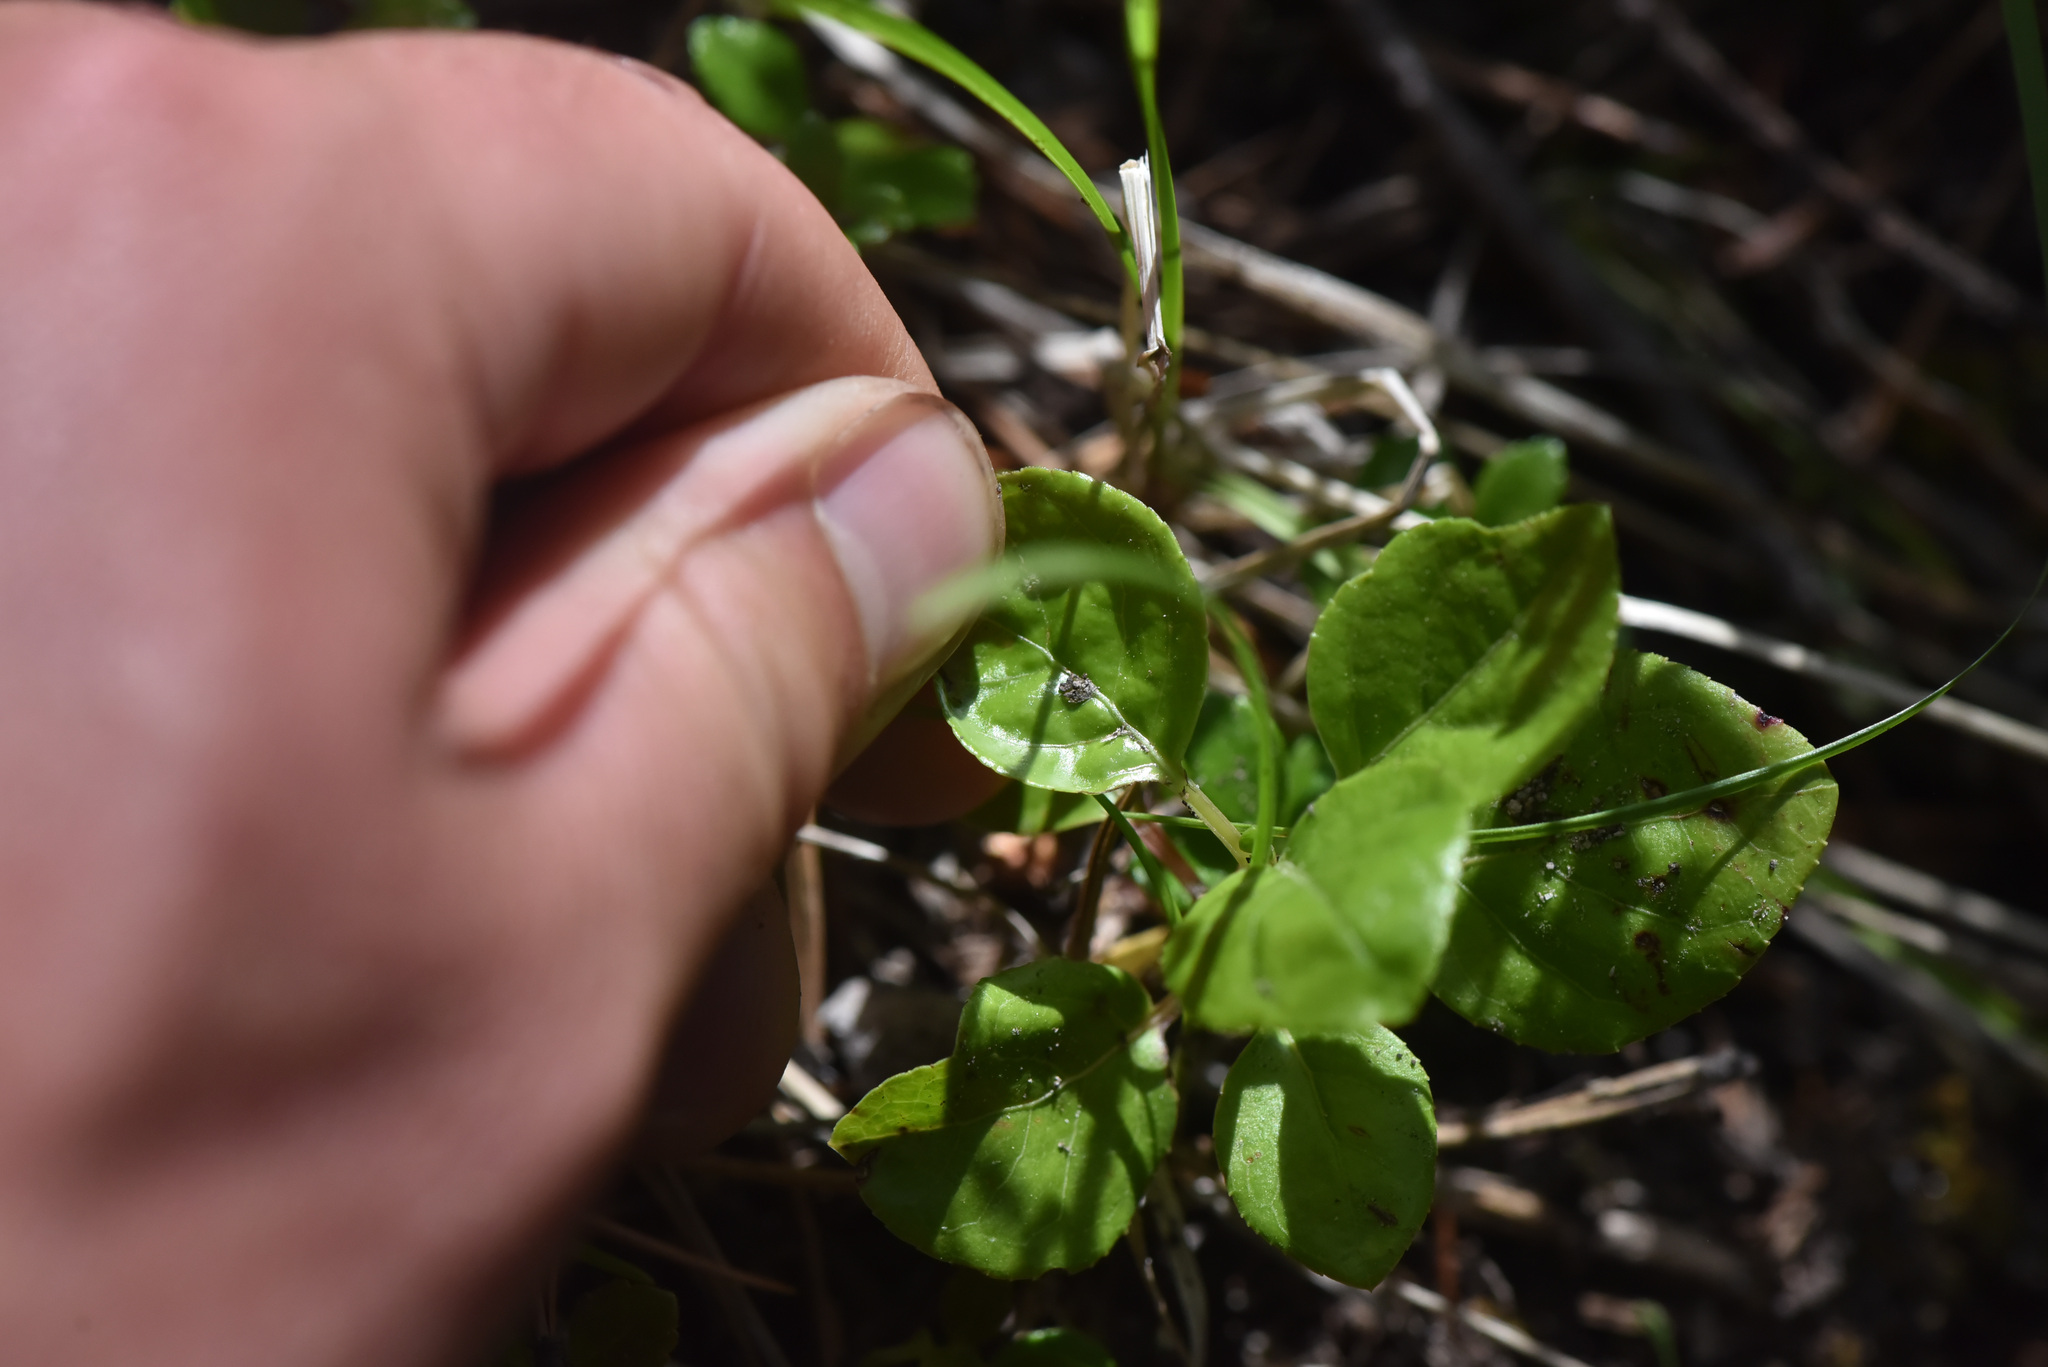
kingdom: Plantae
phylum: Tracheophyta
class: Magnoliopsida
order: Ericales
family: Ericaceae
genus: Orthilia
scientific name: Orthilia secunda
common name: One-sided orthilia
